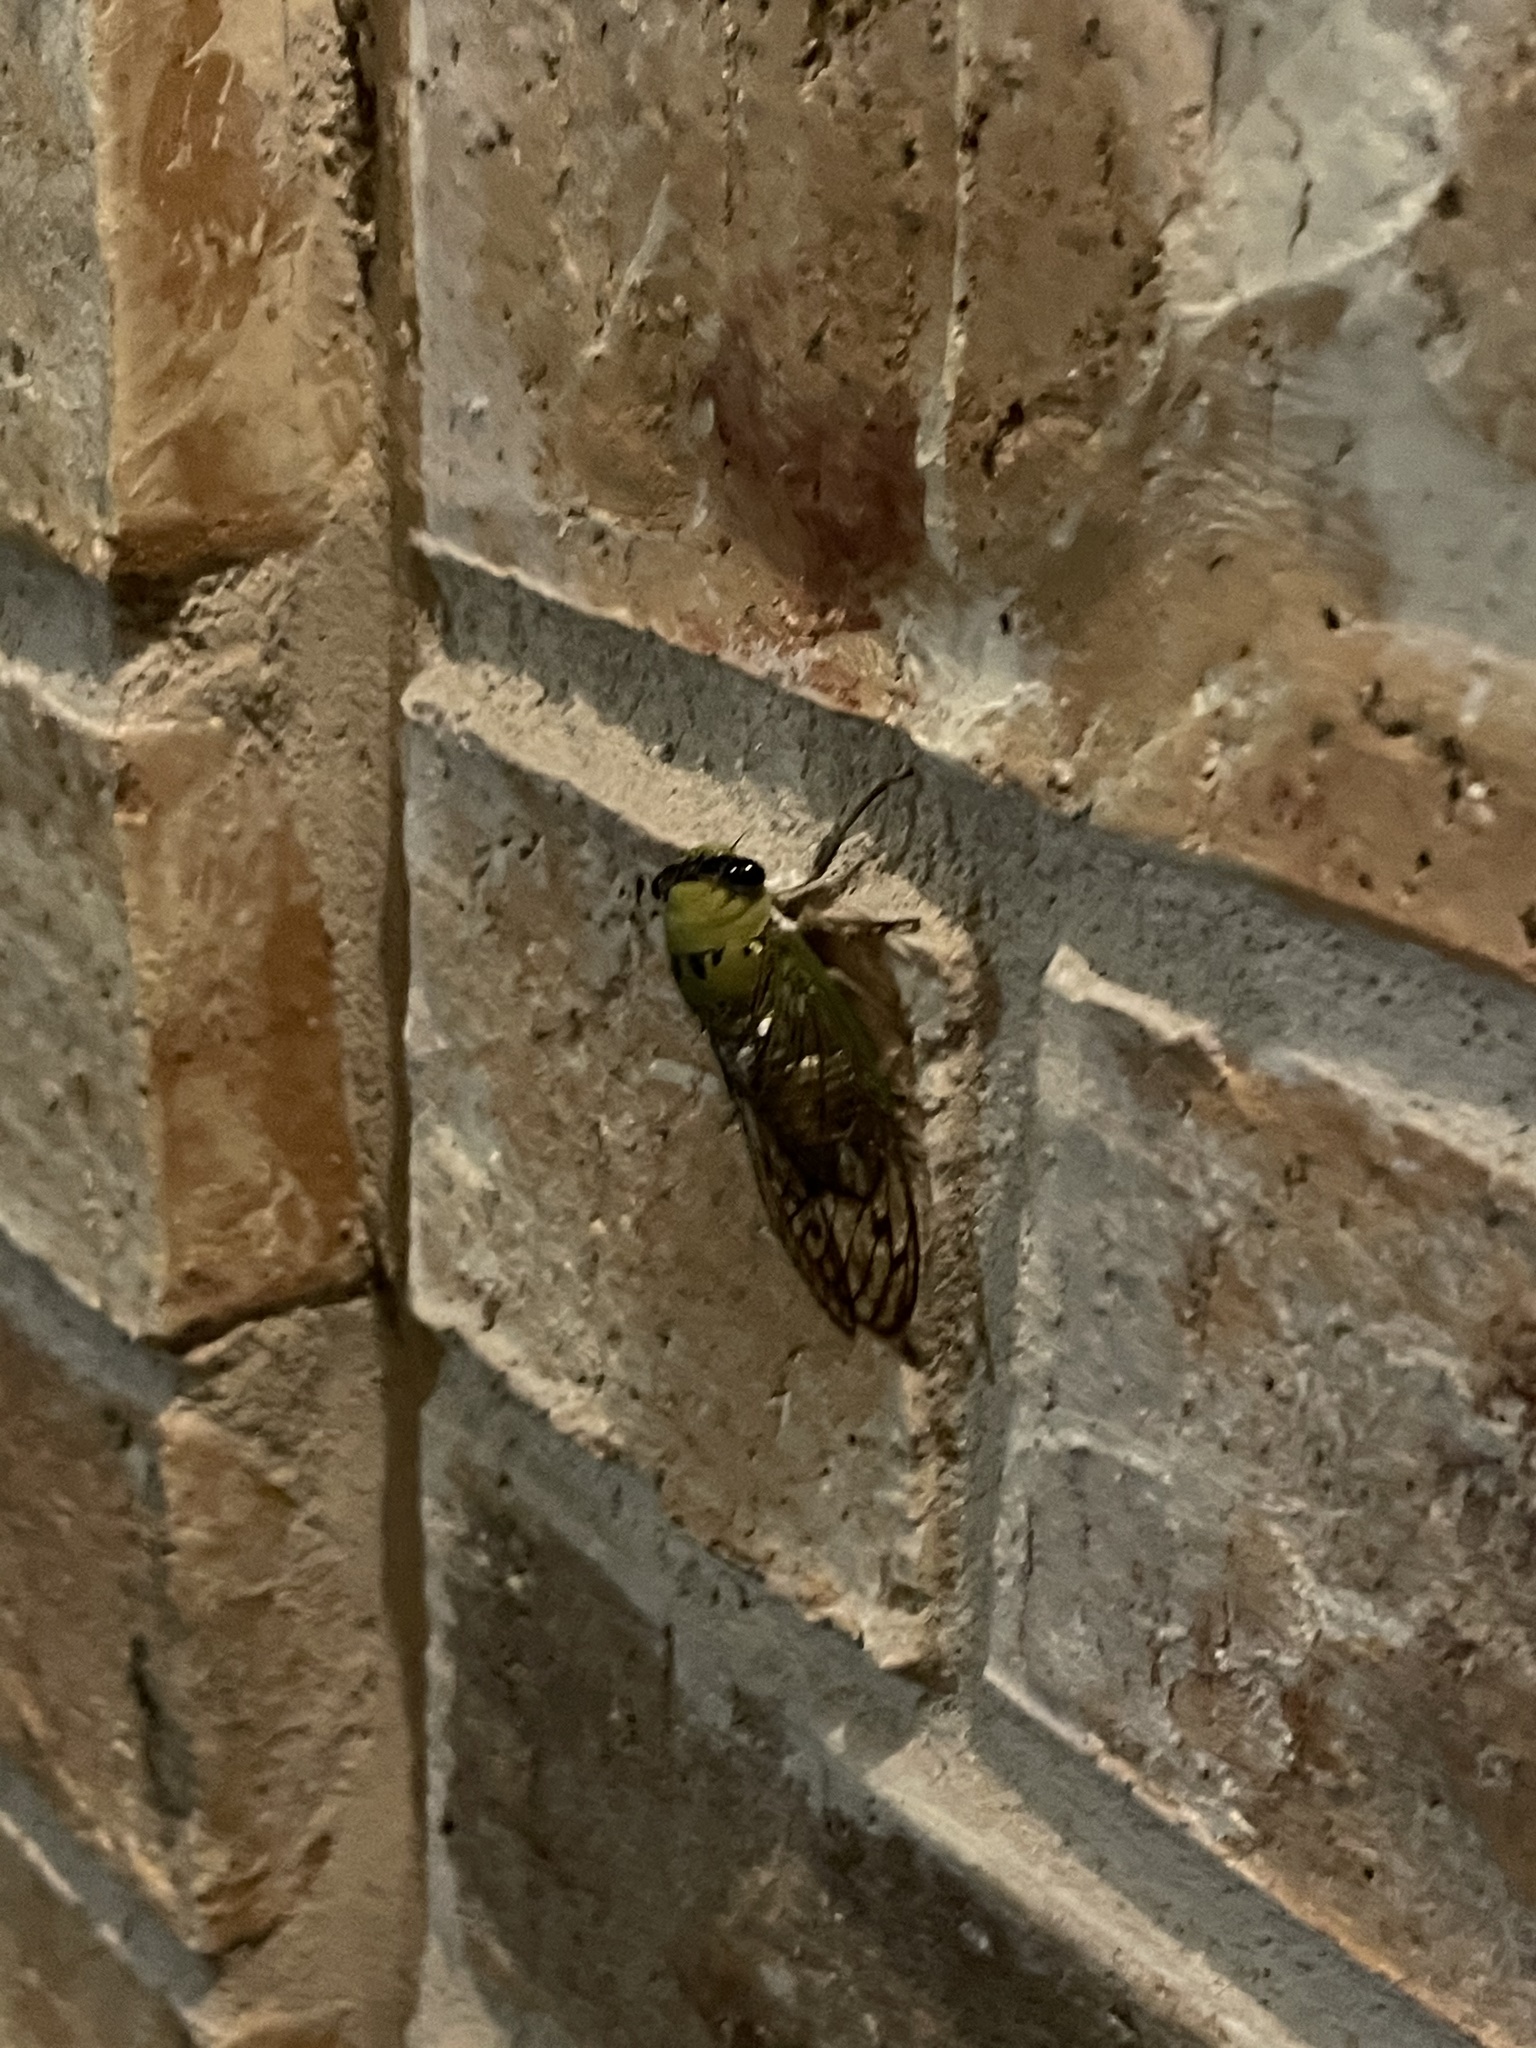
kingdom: Animalia
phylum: Arthropoda
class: Insecta
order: Hemiptera
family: Cicadidae
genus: Neotibicen
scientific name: Neotibicen superbus
